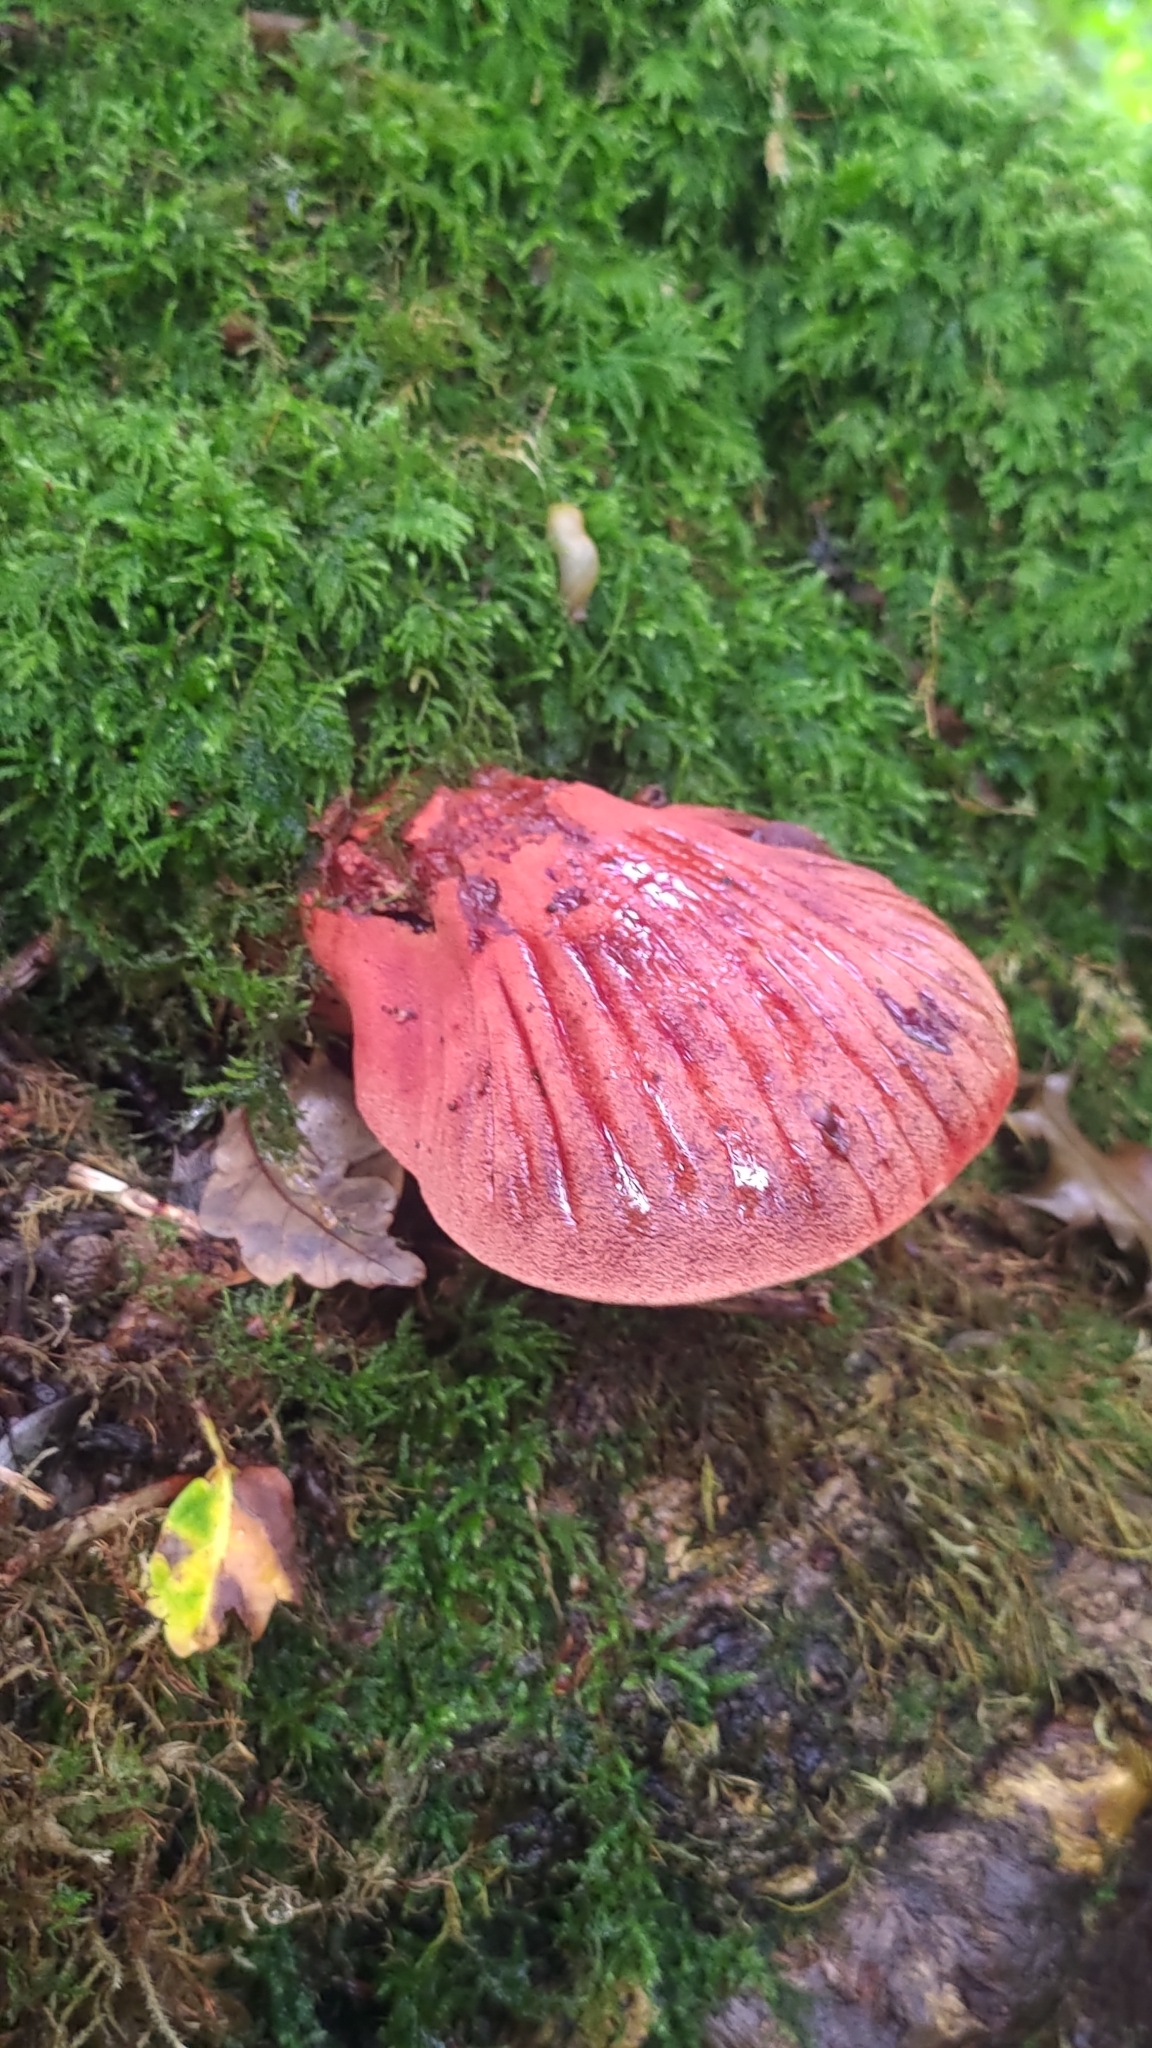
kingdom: Fungi
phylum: Basidiomycota
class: Agaricomycetes
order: Agaricales
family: Fistulinaceae
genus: Fistulina
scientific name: Fistulina hepatica
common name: Beef-steak fungus
